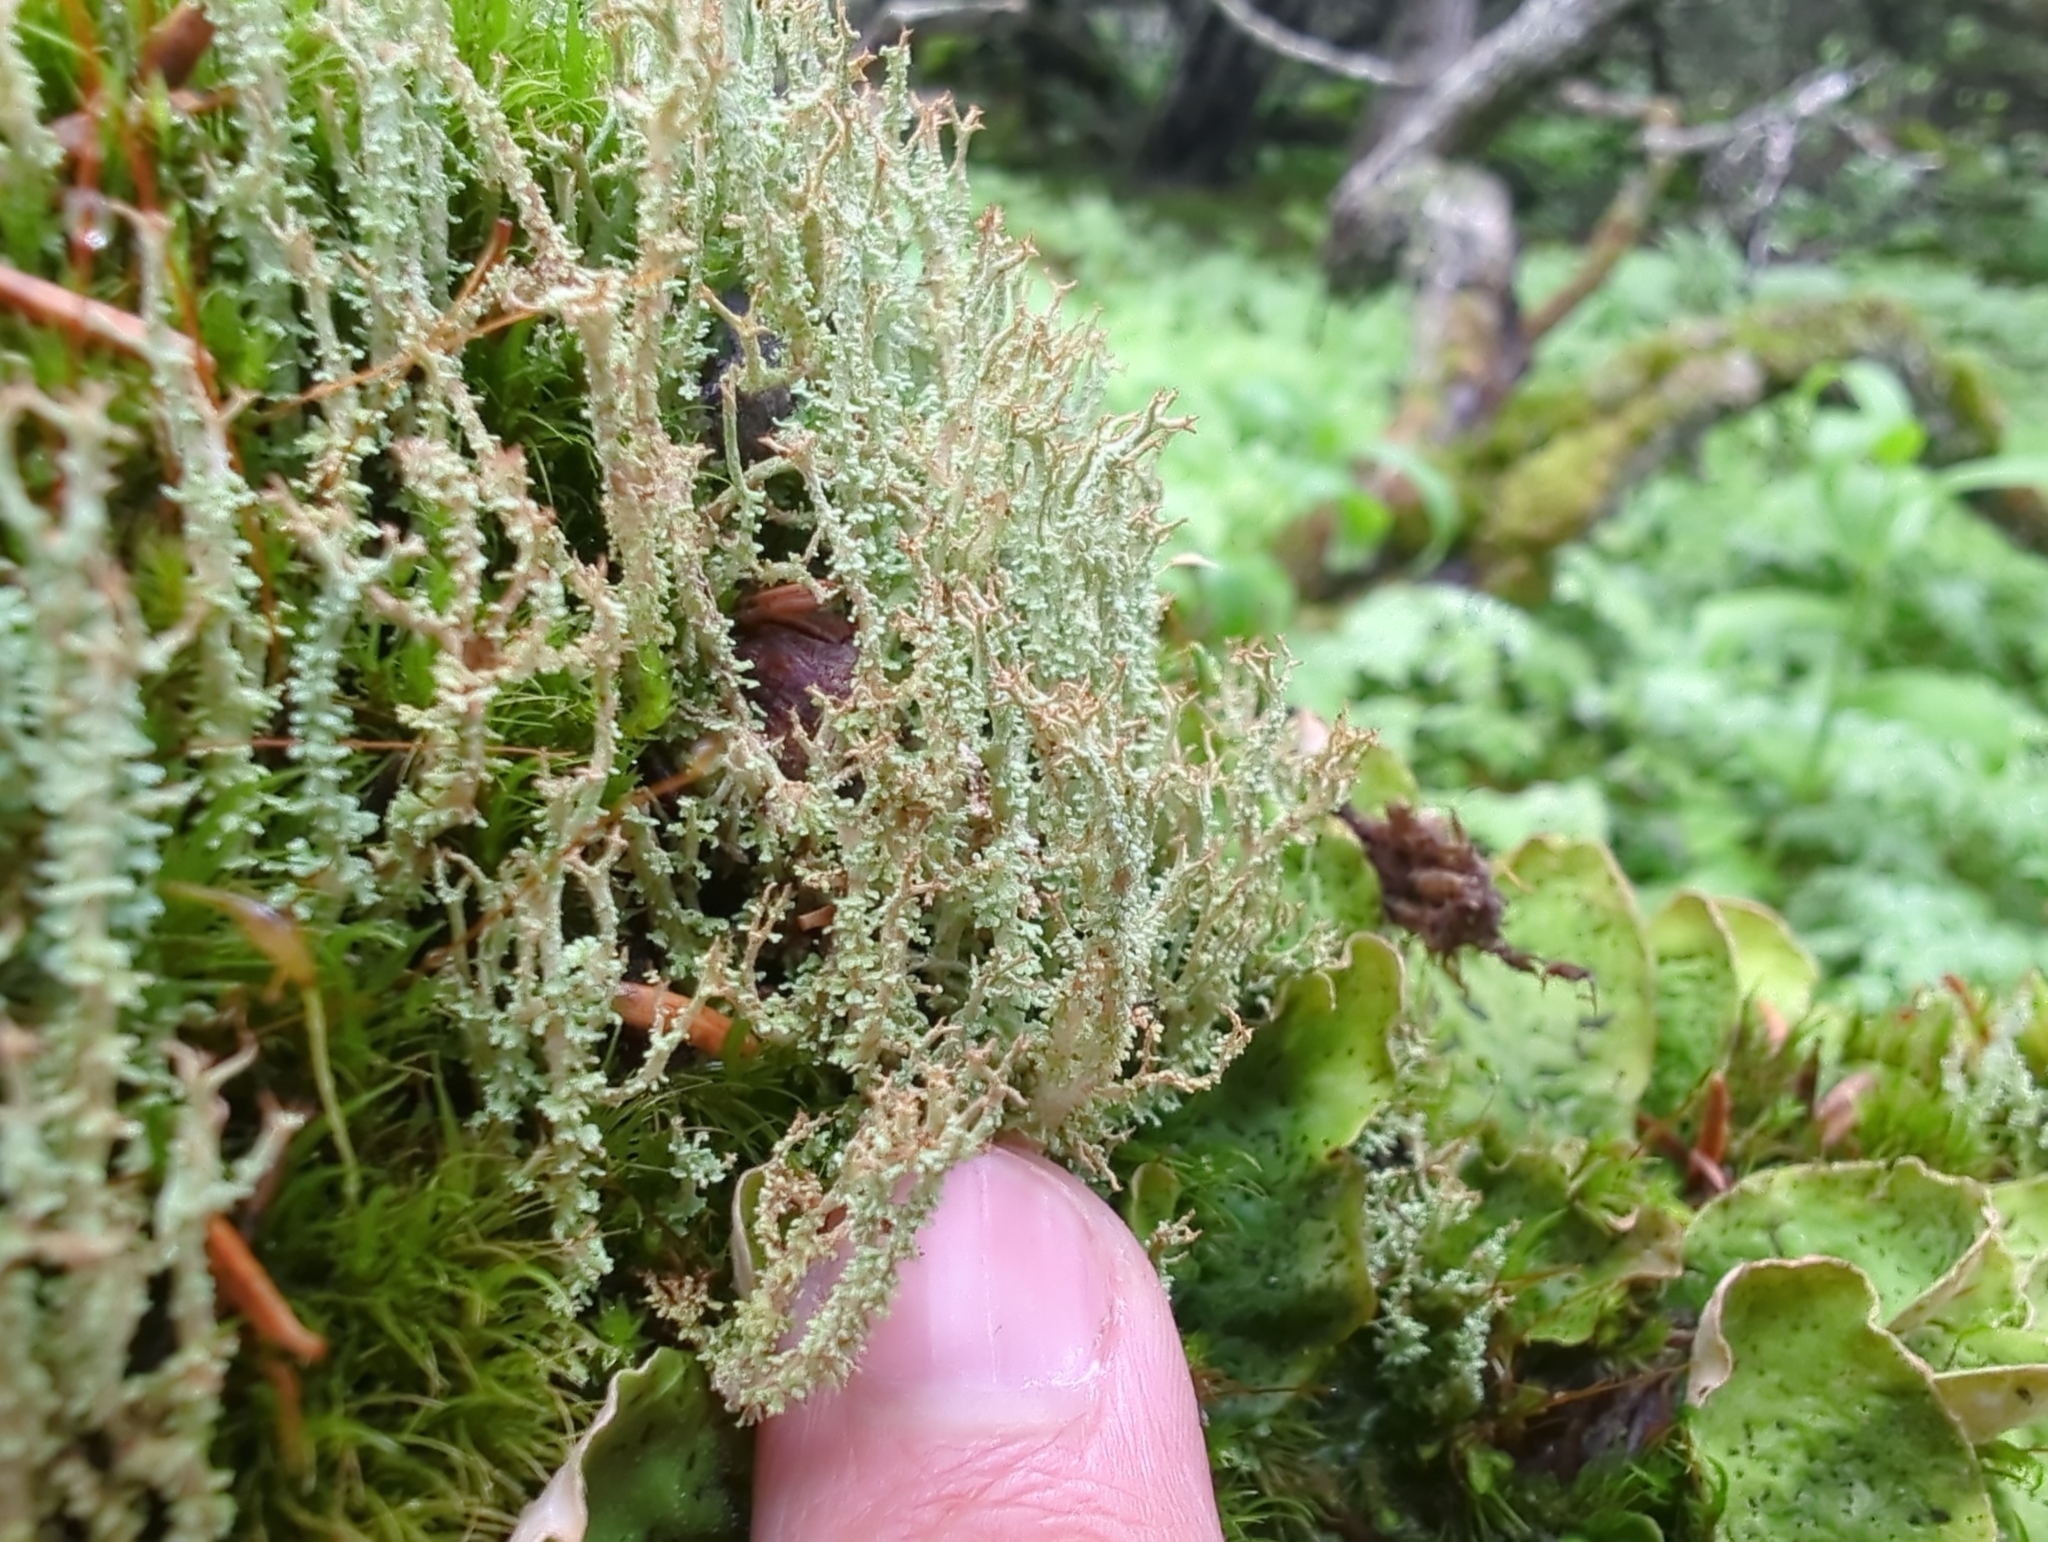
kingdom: Fungi
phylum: Ascomycota
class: Lecanoromycetes
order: Lecanorales
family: Cladoniaceae
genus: Cladonia
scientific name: Cladonia squamosa
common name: Dragon horn
